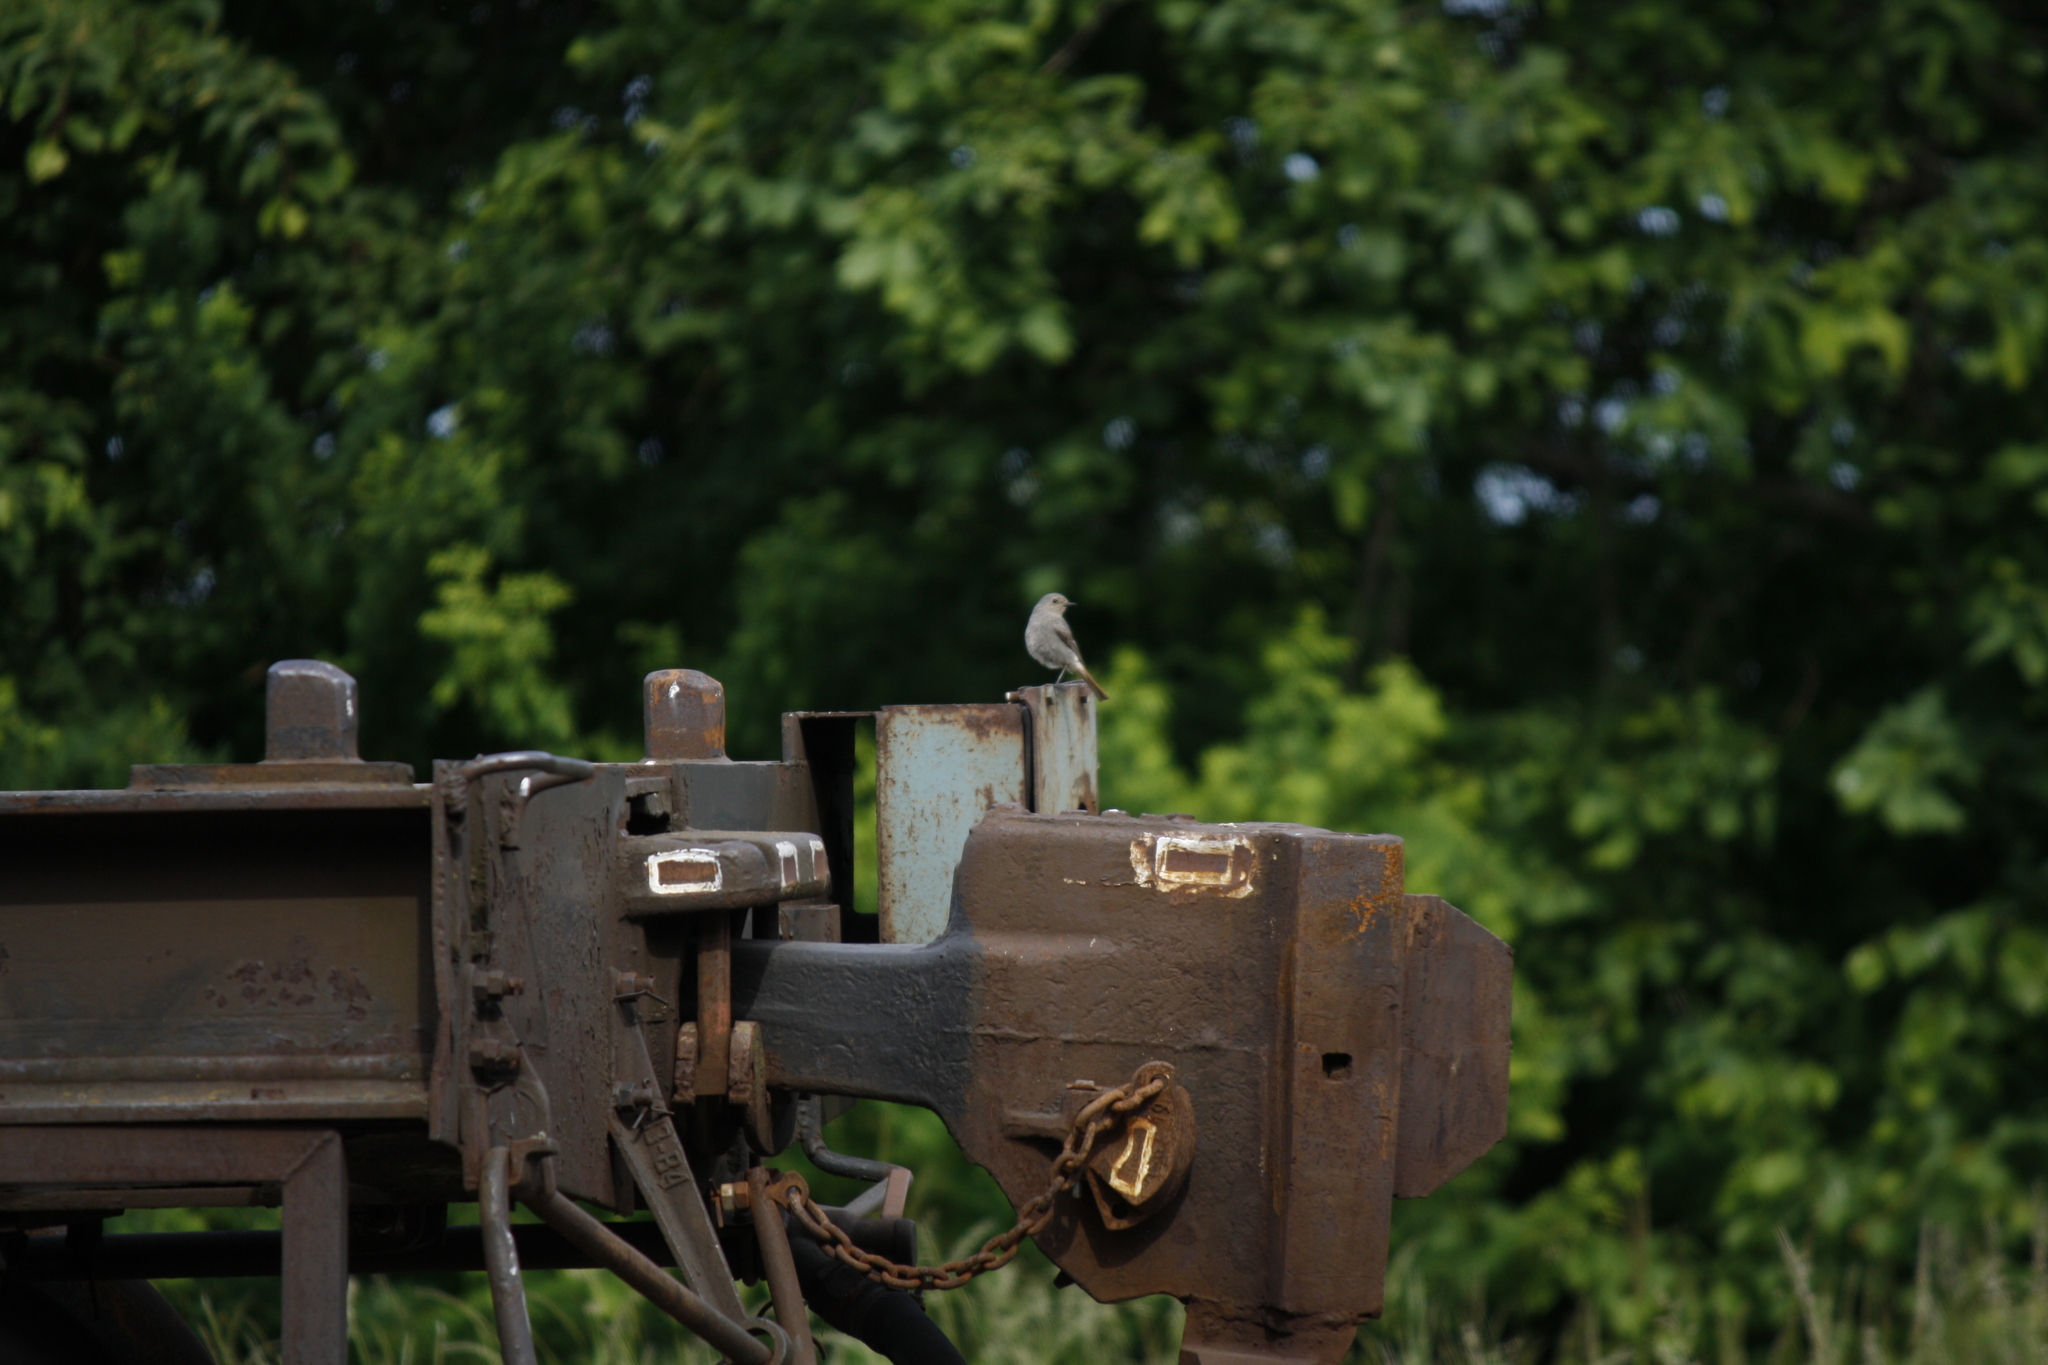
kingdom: Animalia
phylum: Chordata
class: Aves
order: Passeriformes
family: Muscicapidae
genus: Phoenicurus
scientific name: Phoenicurus ochruros
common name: Black redstart
